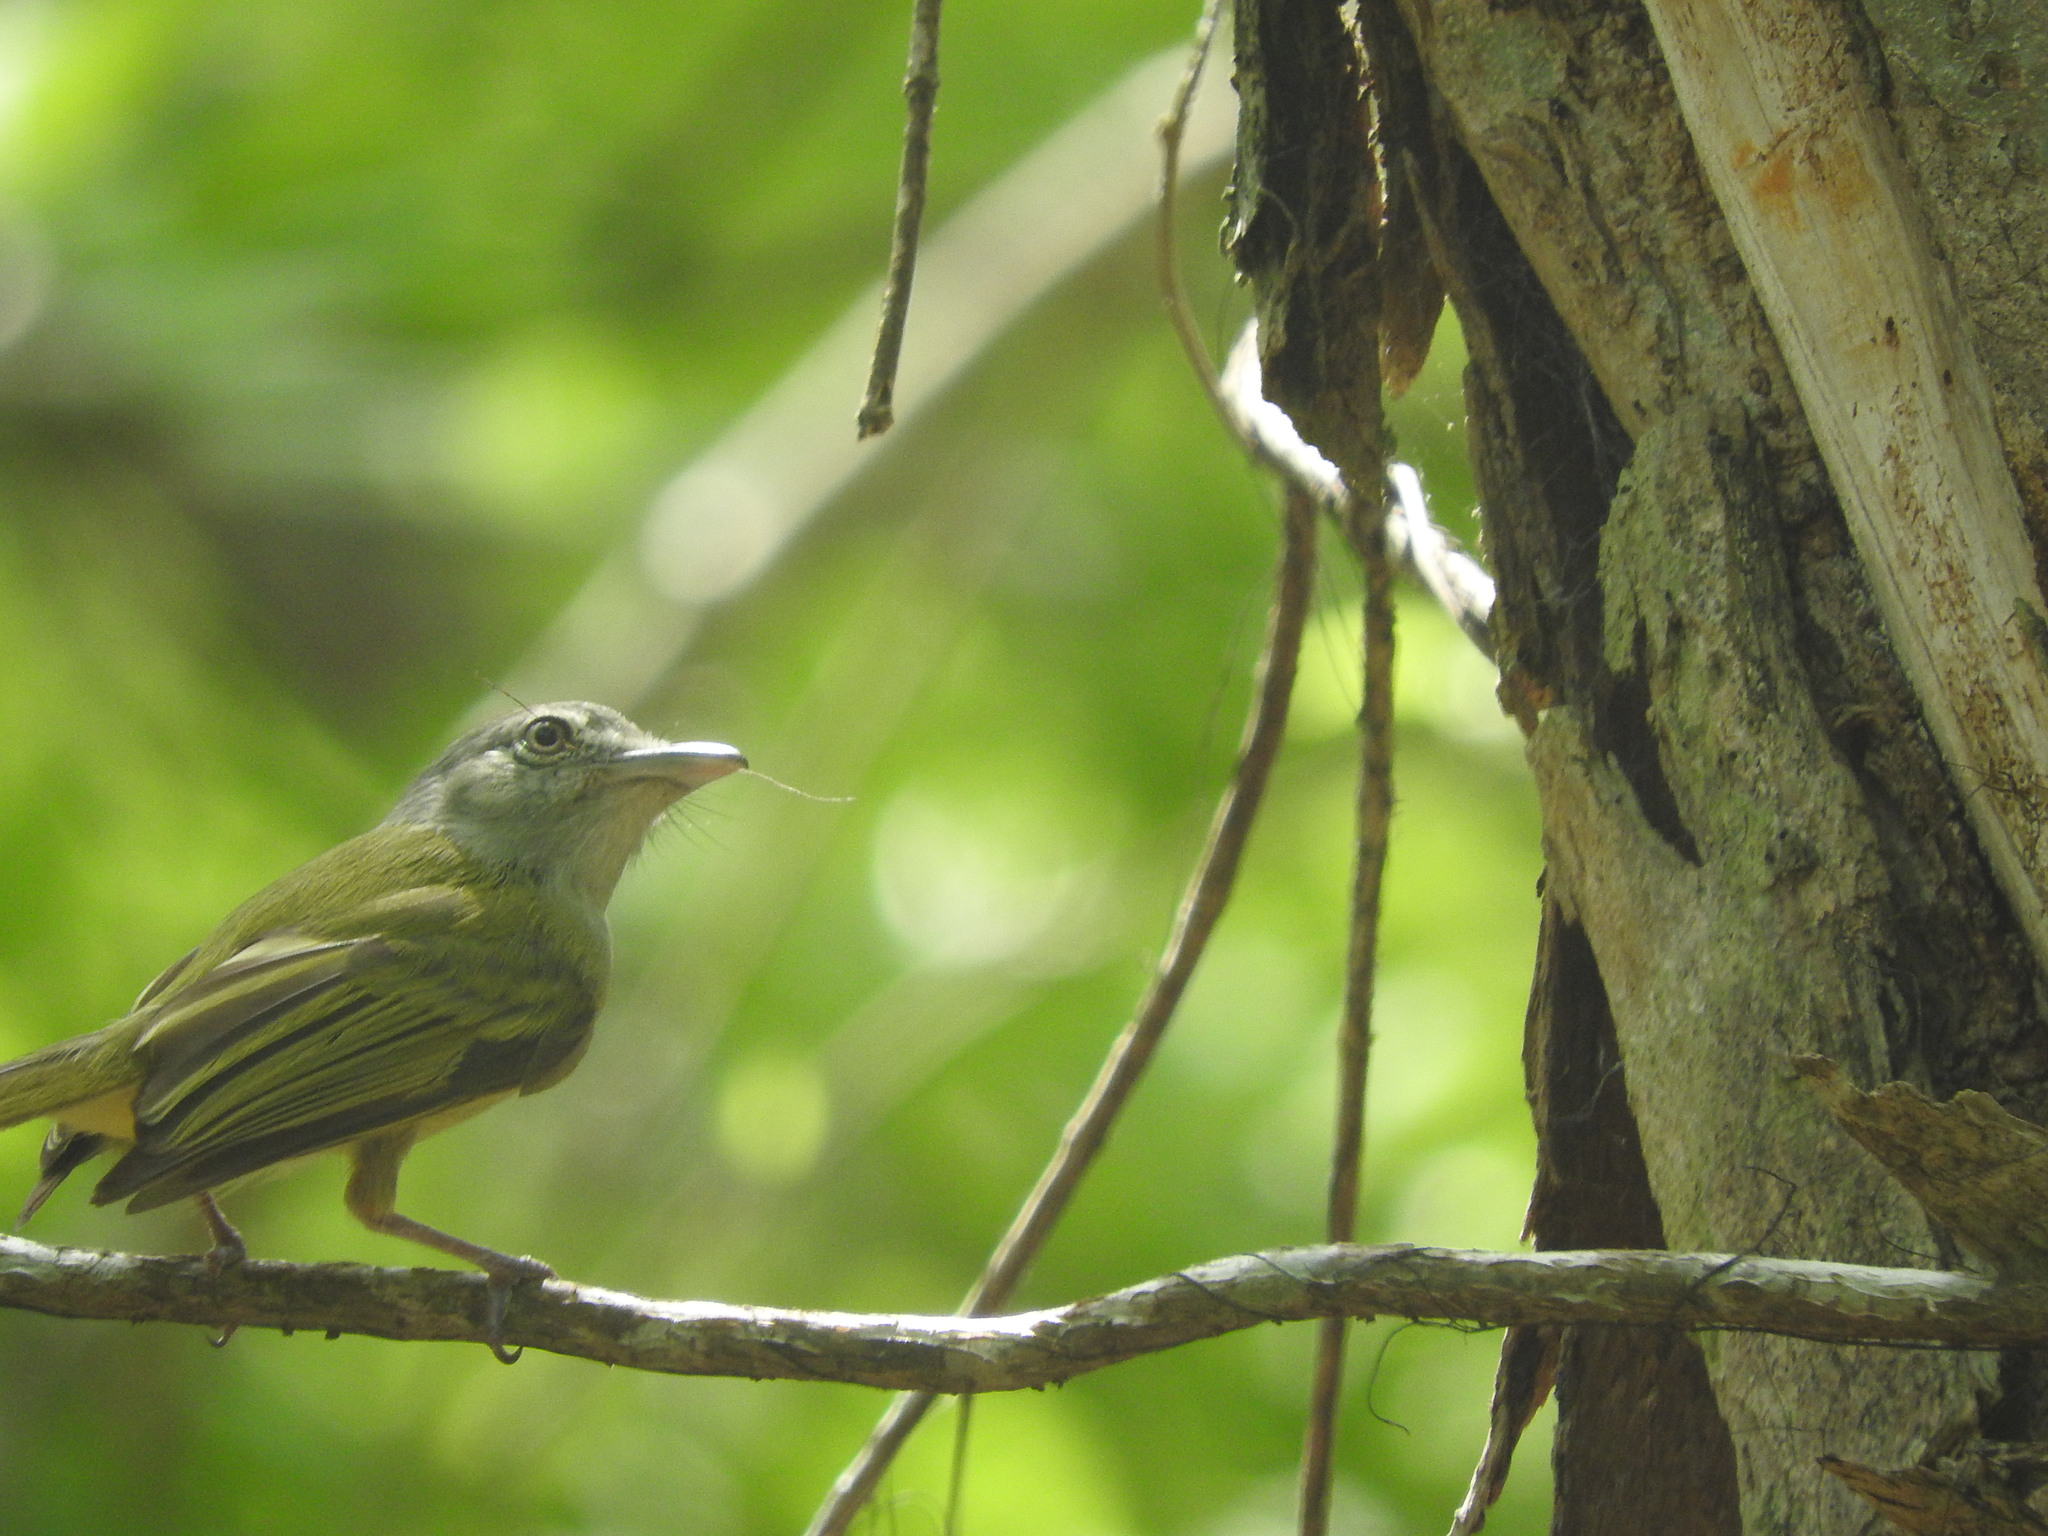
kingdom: Animalia
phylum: Chordata
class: Aves
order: Passeriformes
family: Tyrannidae
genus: Tolmomyias
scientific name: Tolmomyias sulphurescens
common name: Yellow-olive flycatcher
